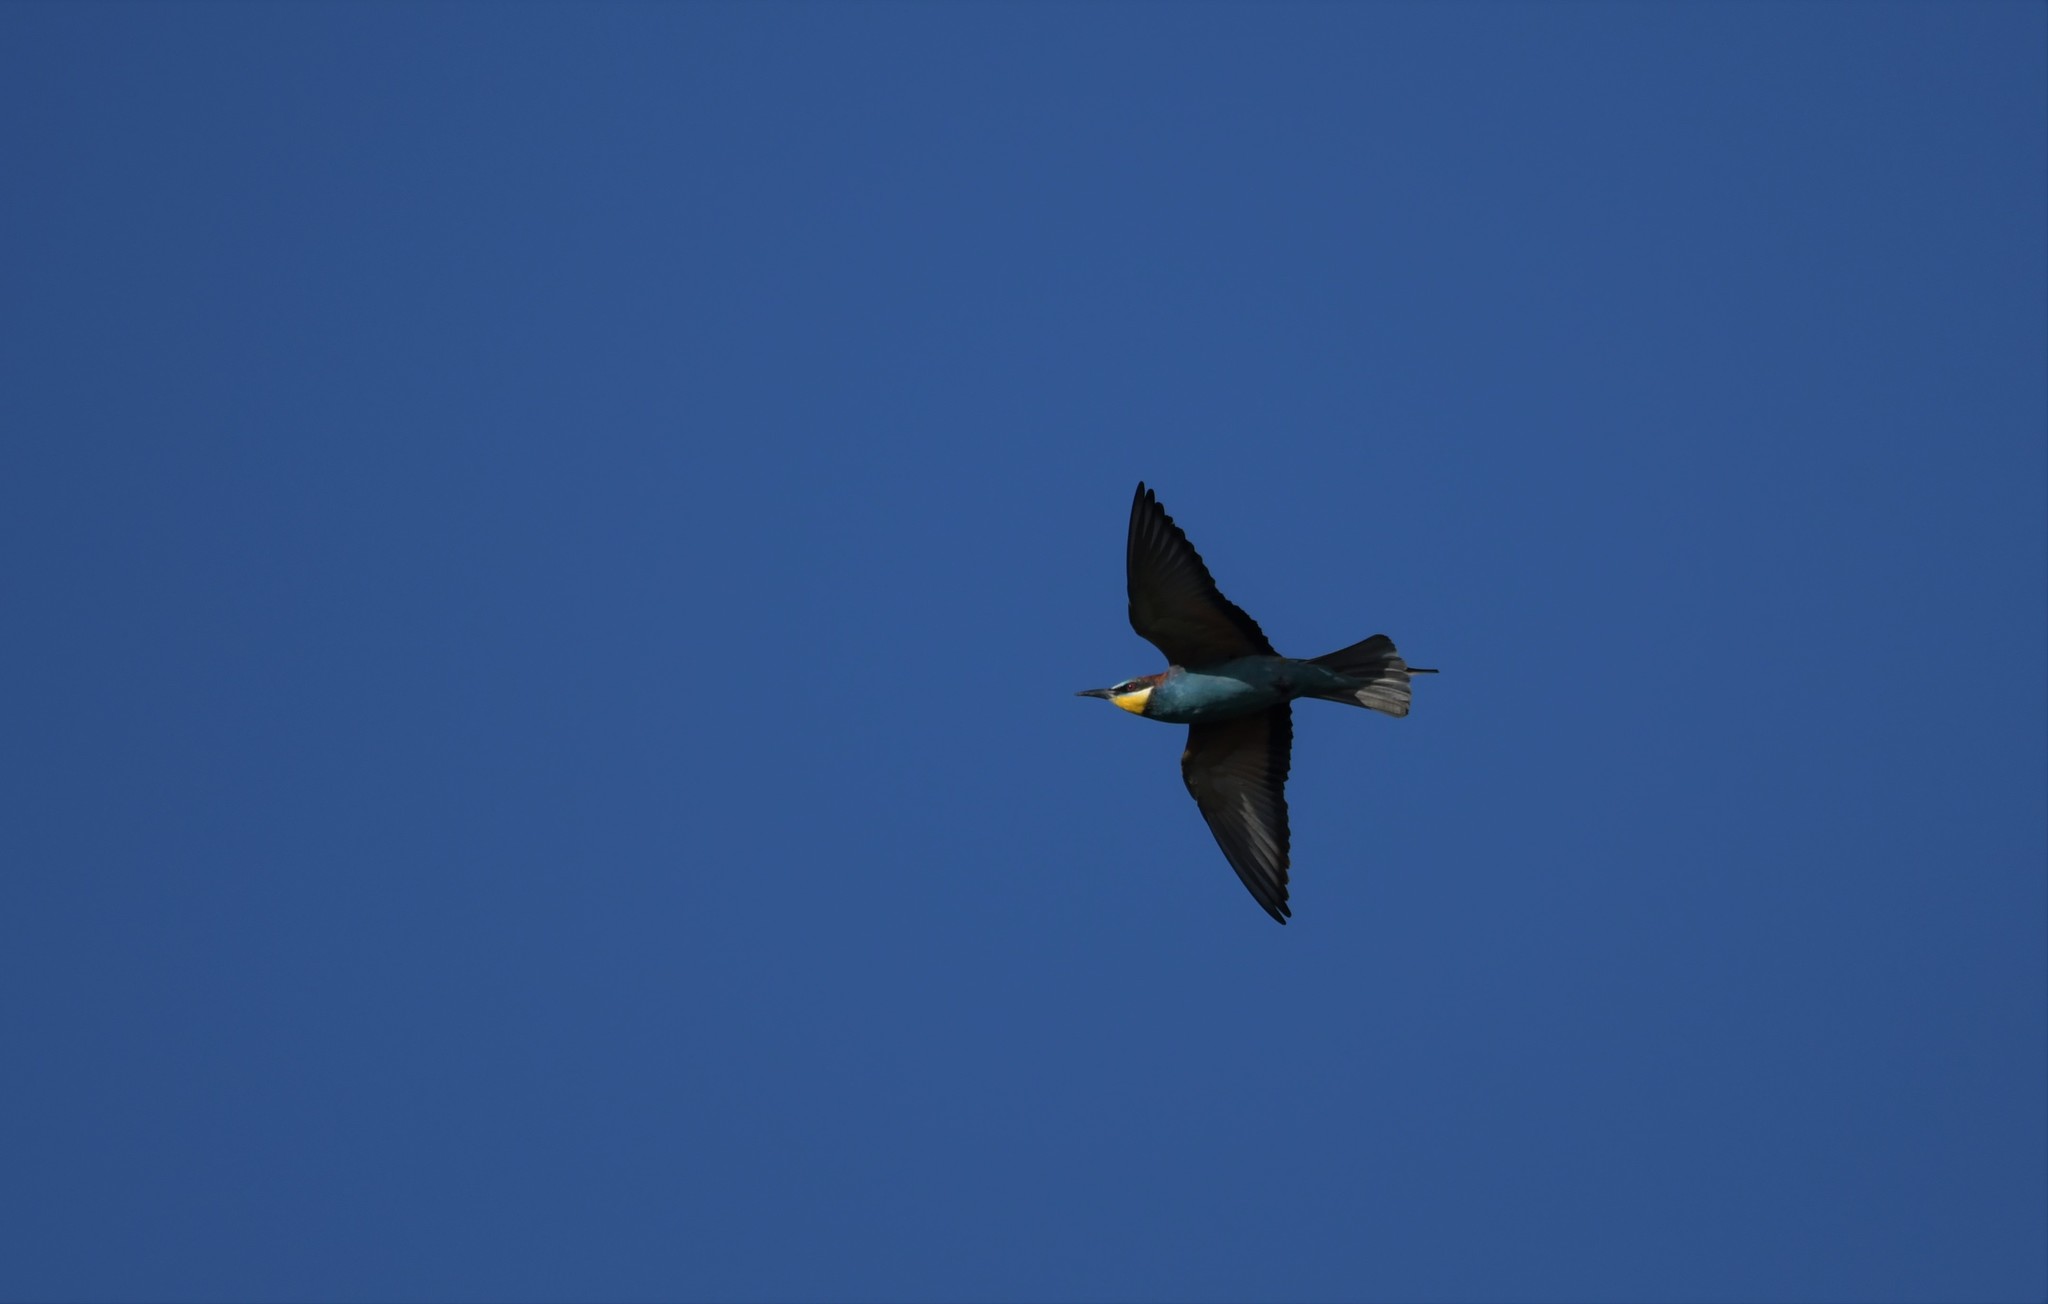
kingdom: Animalia
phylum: Chordata
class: Aves
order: Coraciiformes
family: Meropidae
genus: Merops
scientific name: Merops apiaster
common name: European bee-eater
